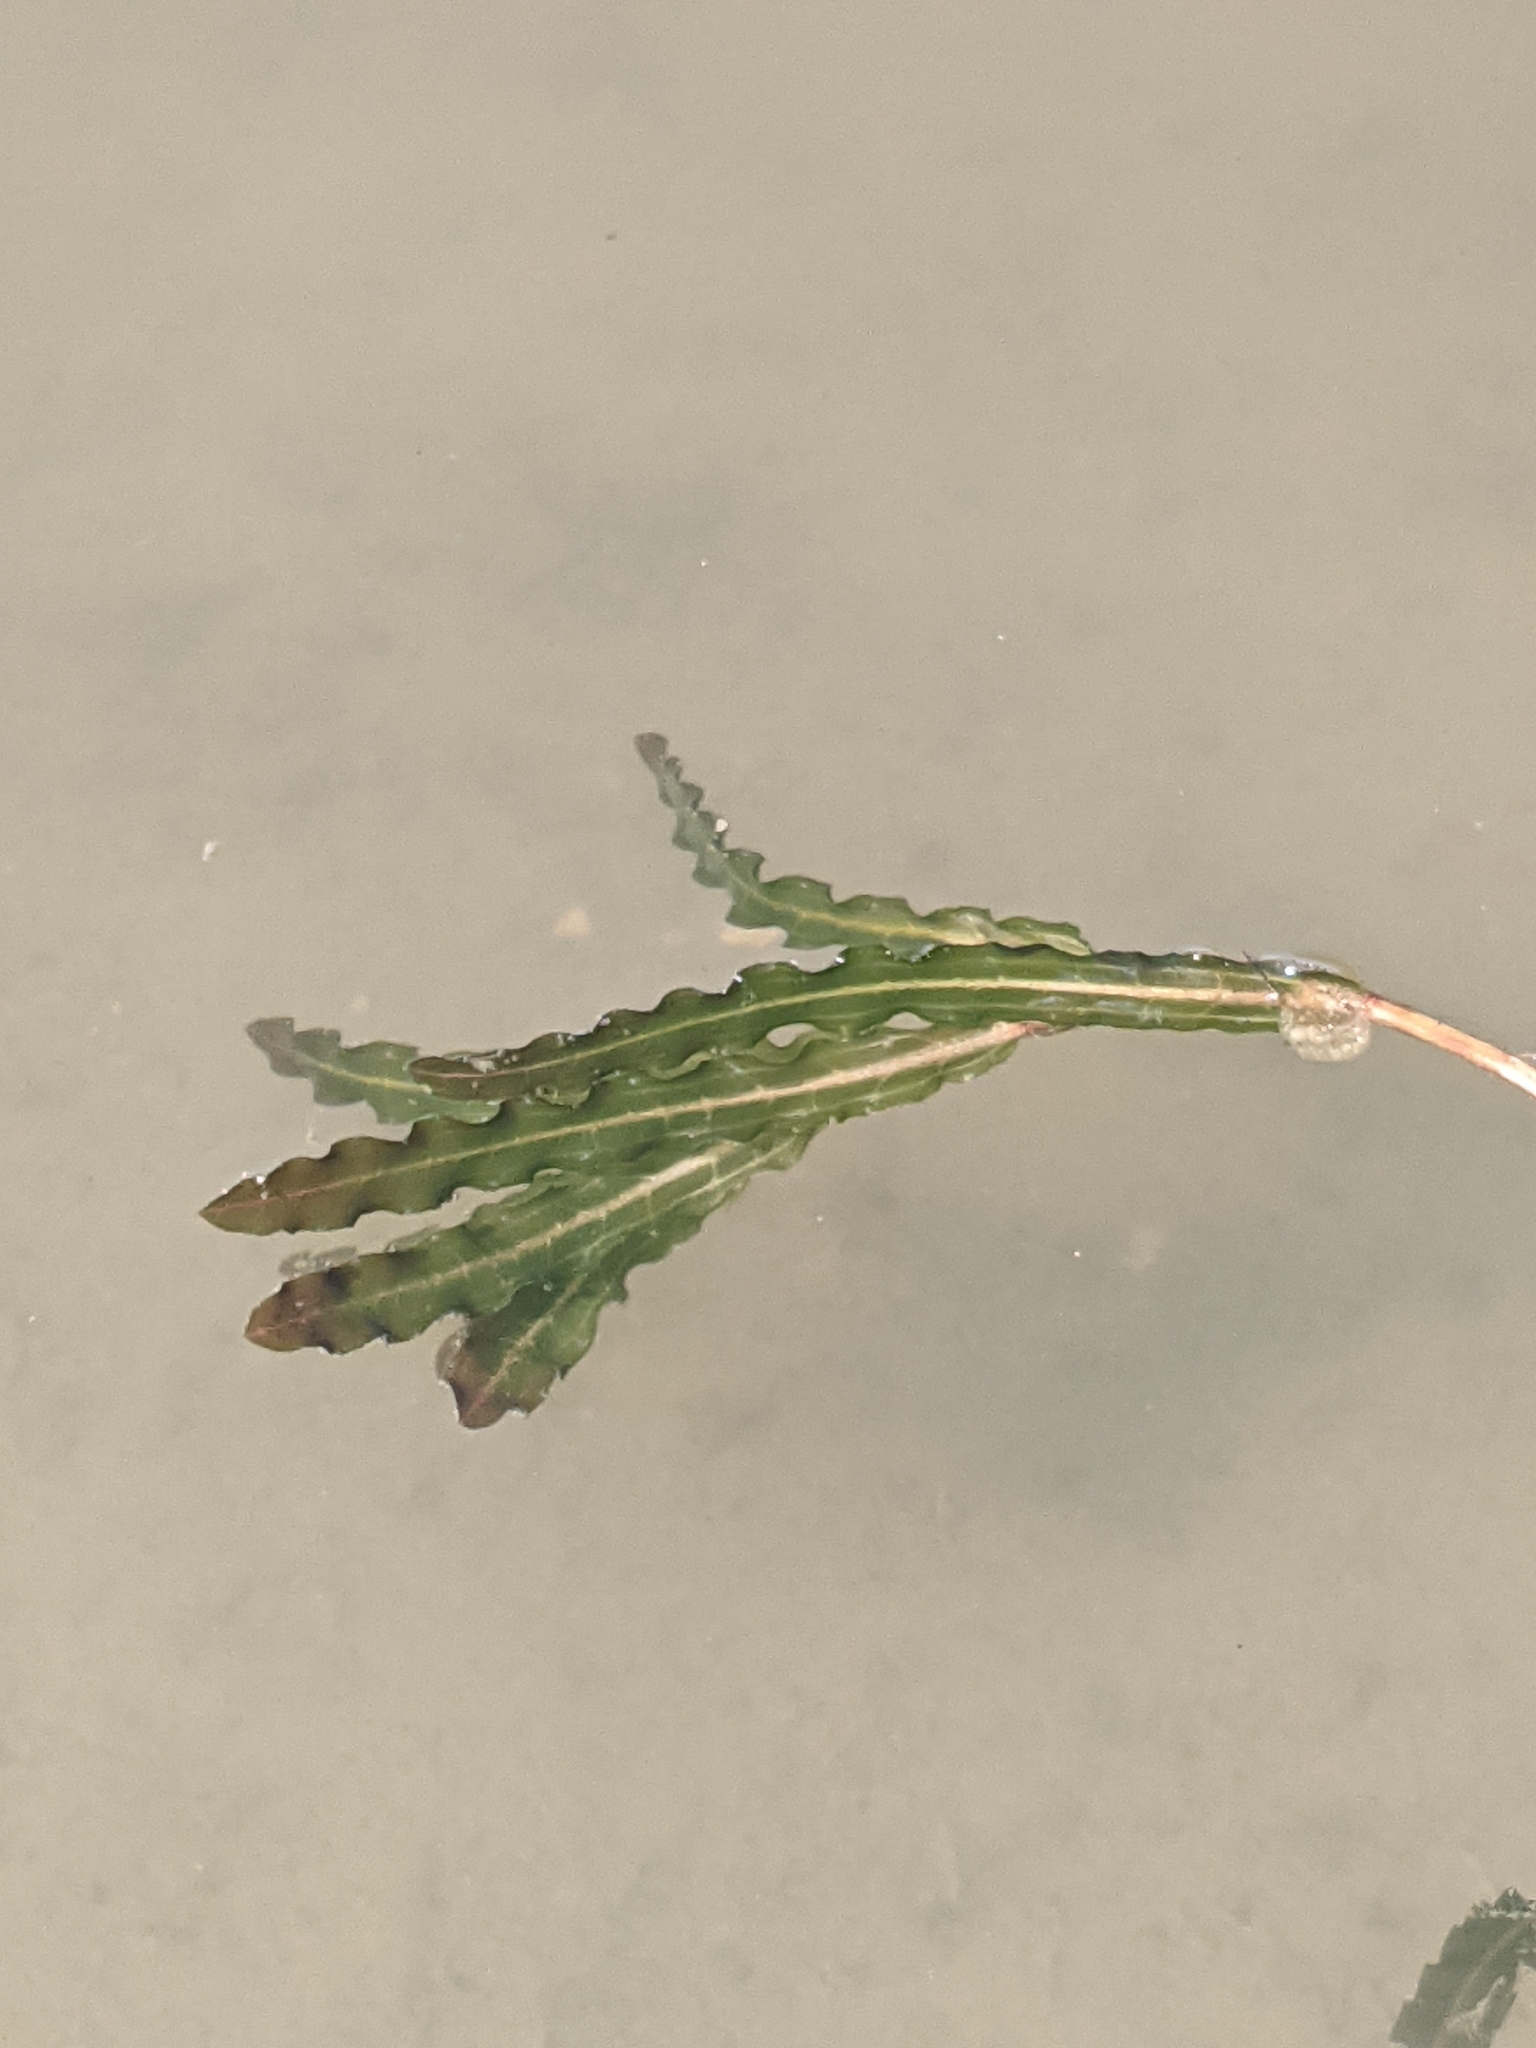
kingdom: Plantae
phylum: Tracheophyta
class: Liliopsida
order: Alismatales
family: Potamogetonaceae
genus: Potamogeton
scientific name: Potamogeton crispus
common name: Curled pondweed
